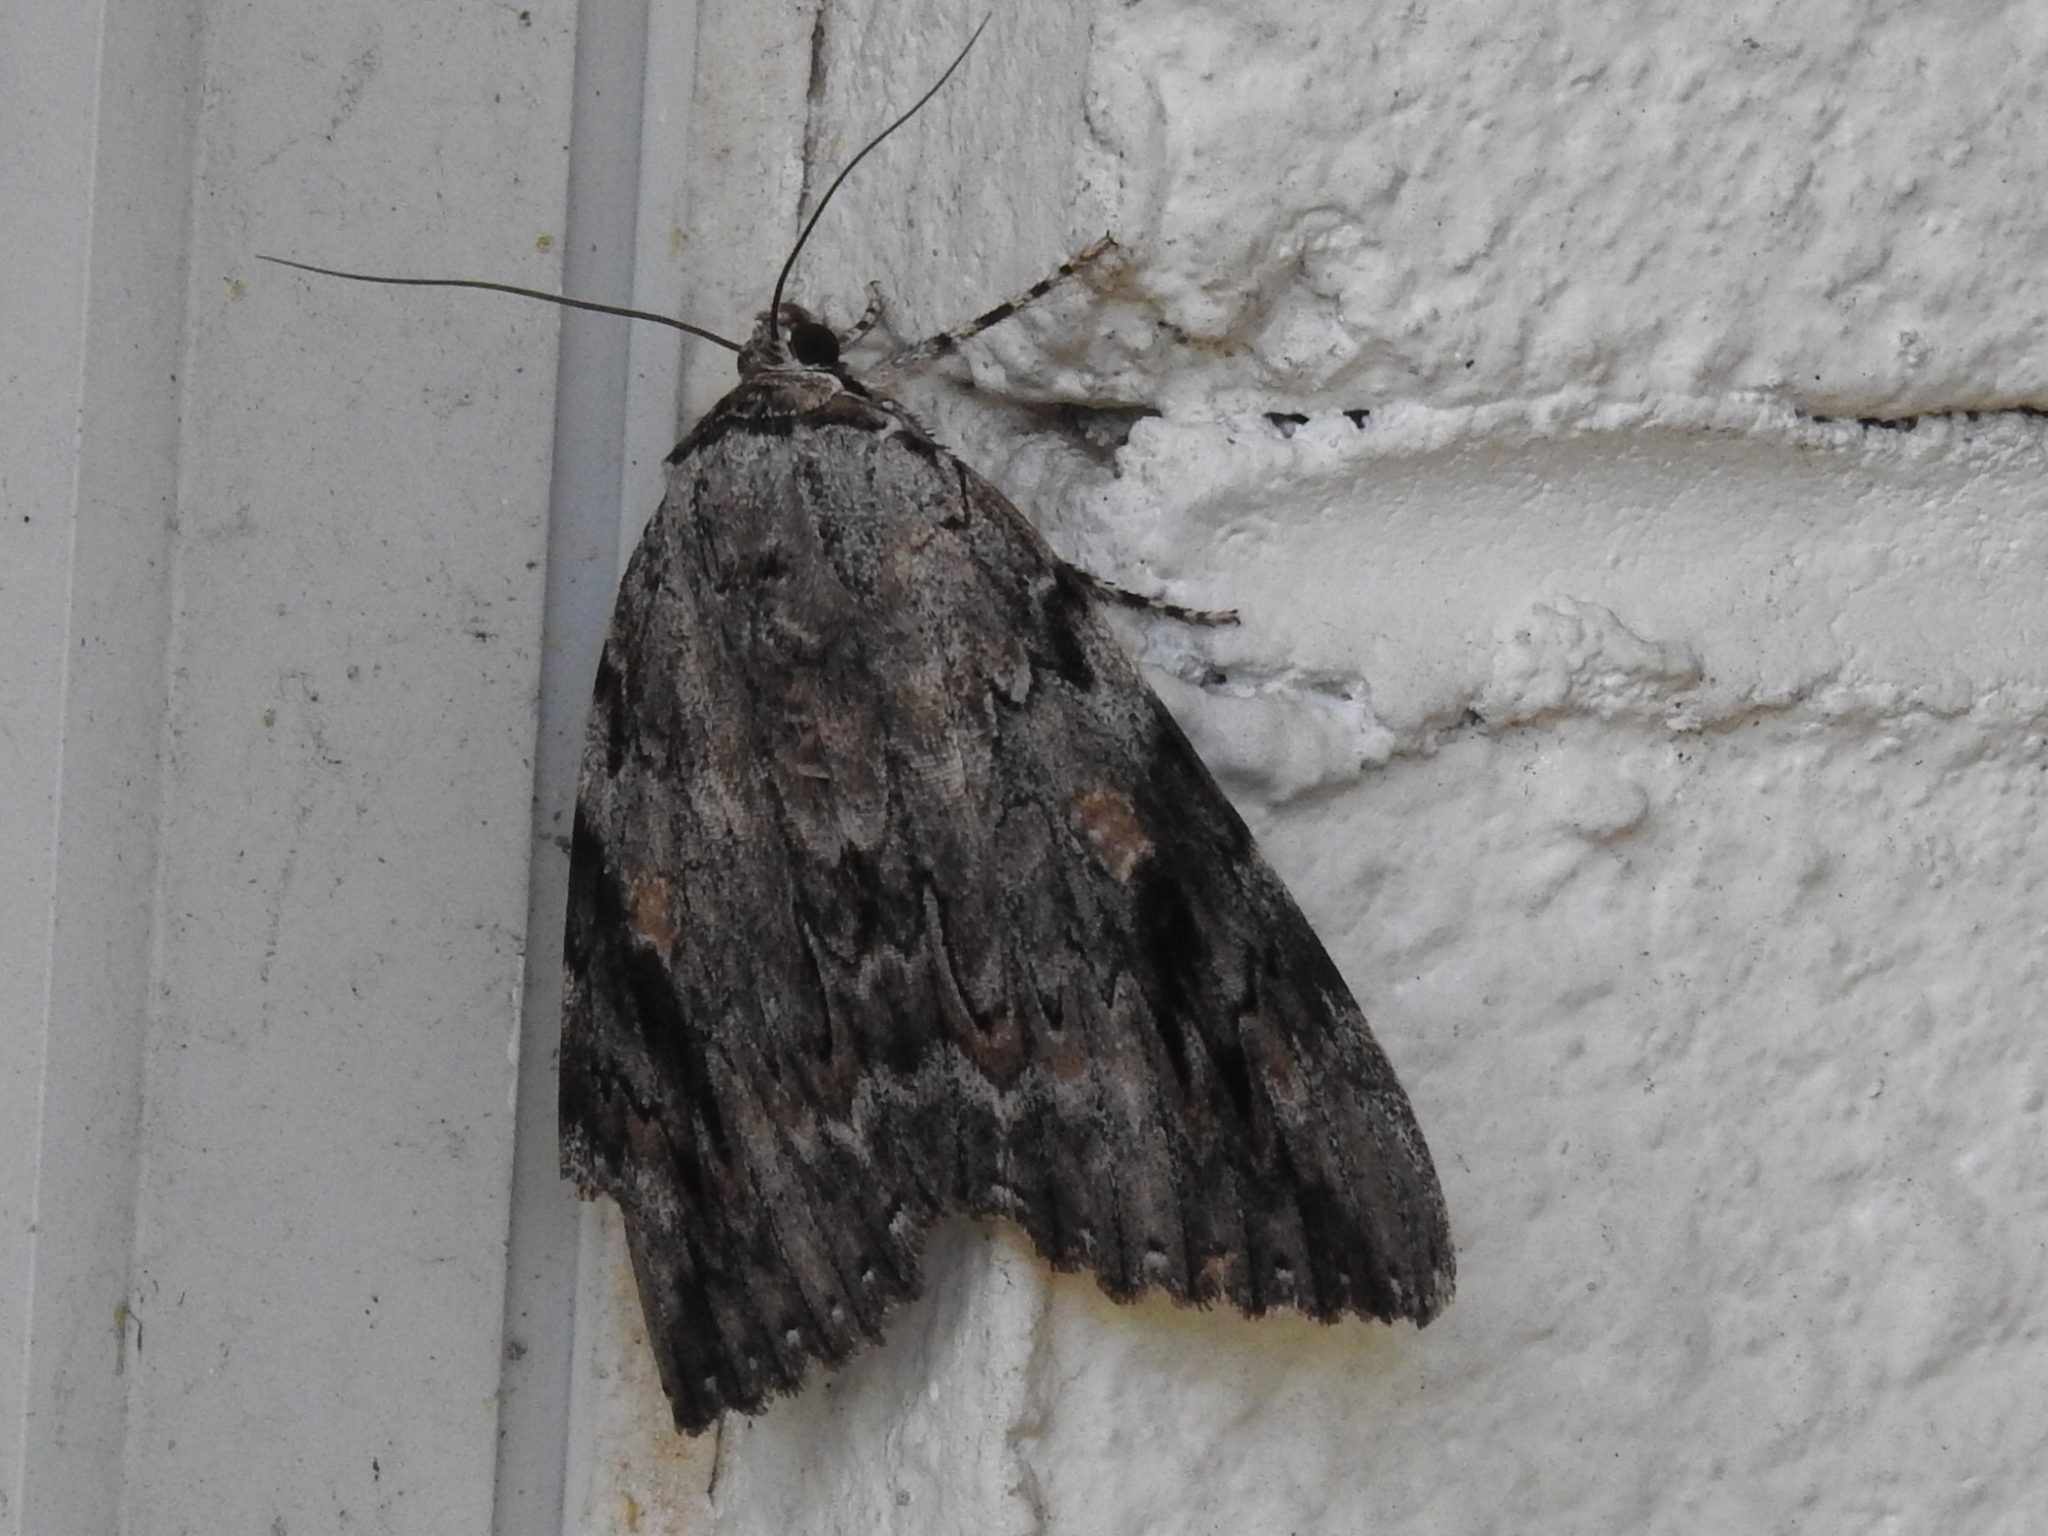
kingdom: Animalia
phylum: Arthropoda
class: Insecta
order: Lepidoptera
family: Erebidae
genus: Catocala
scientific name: Catocala maestosa
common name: Sad underwing
